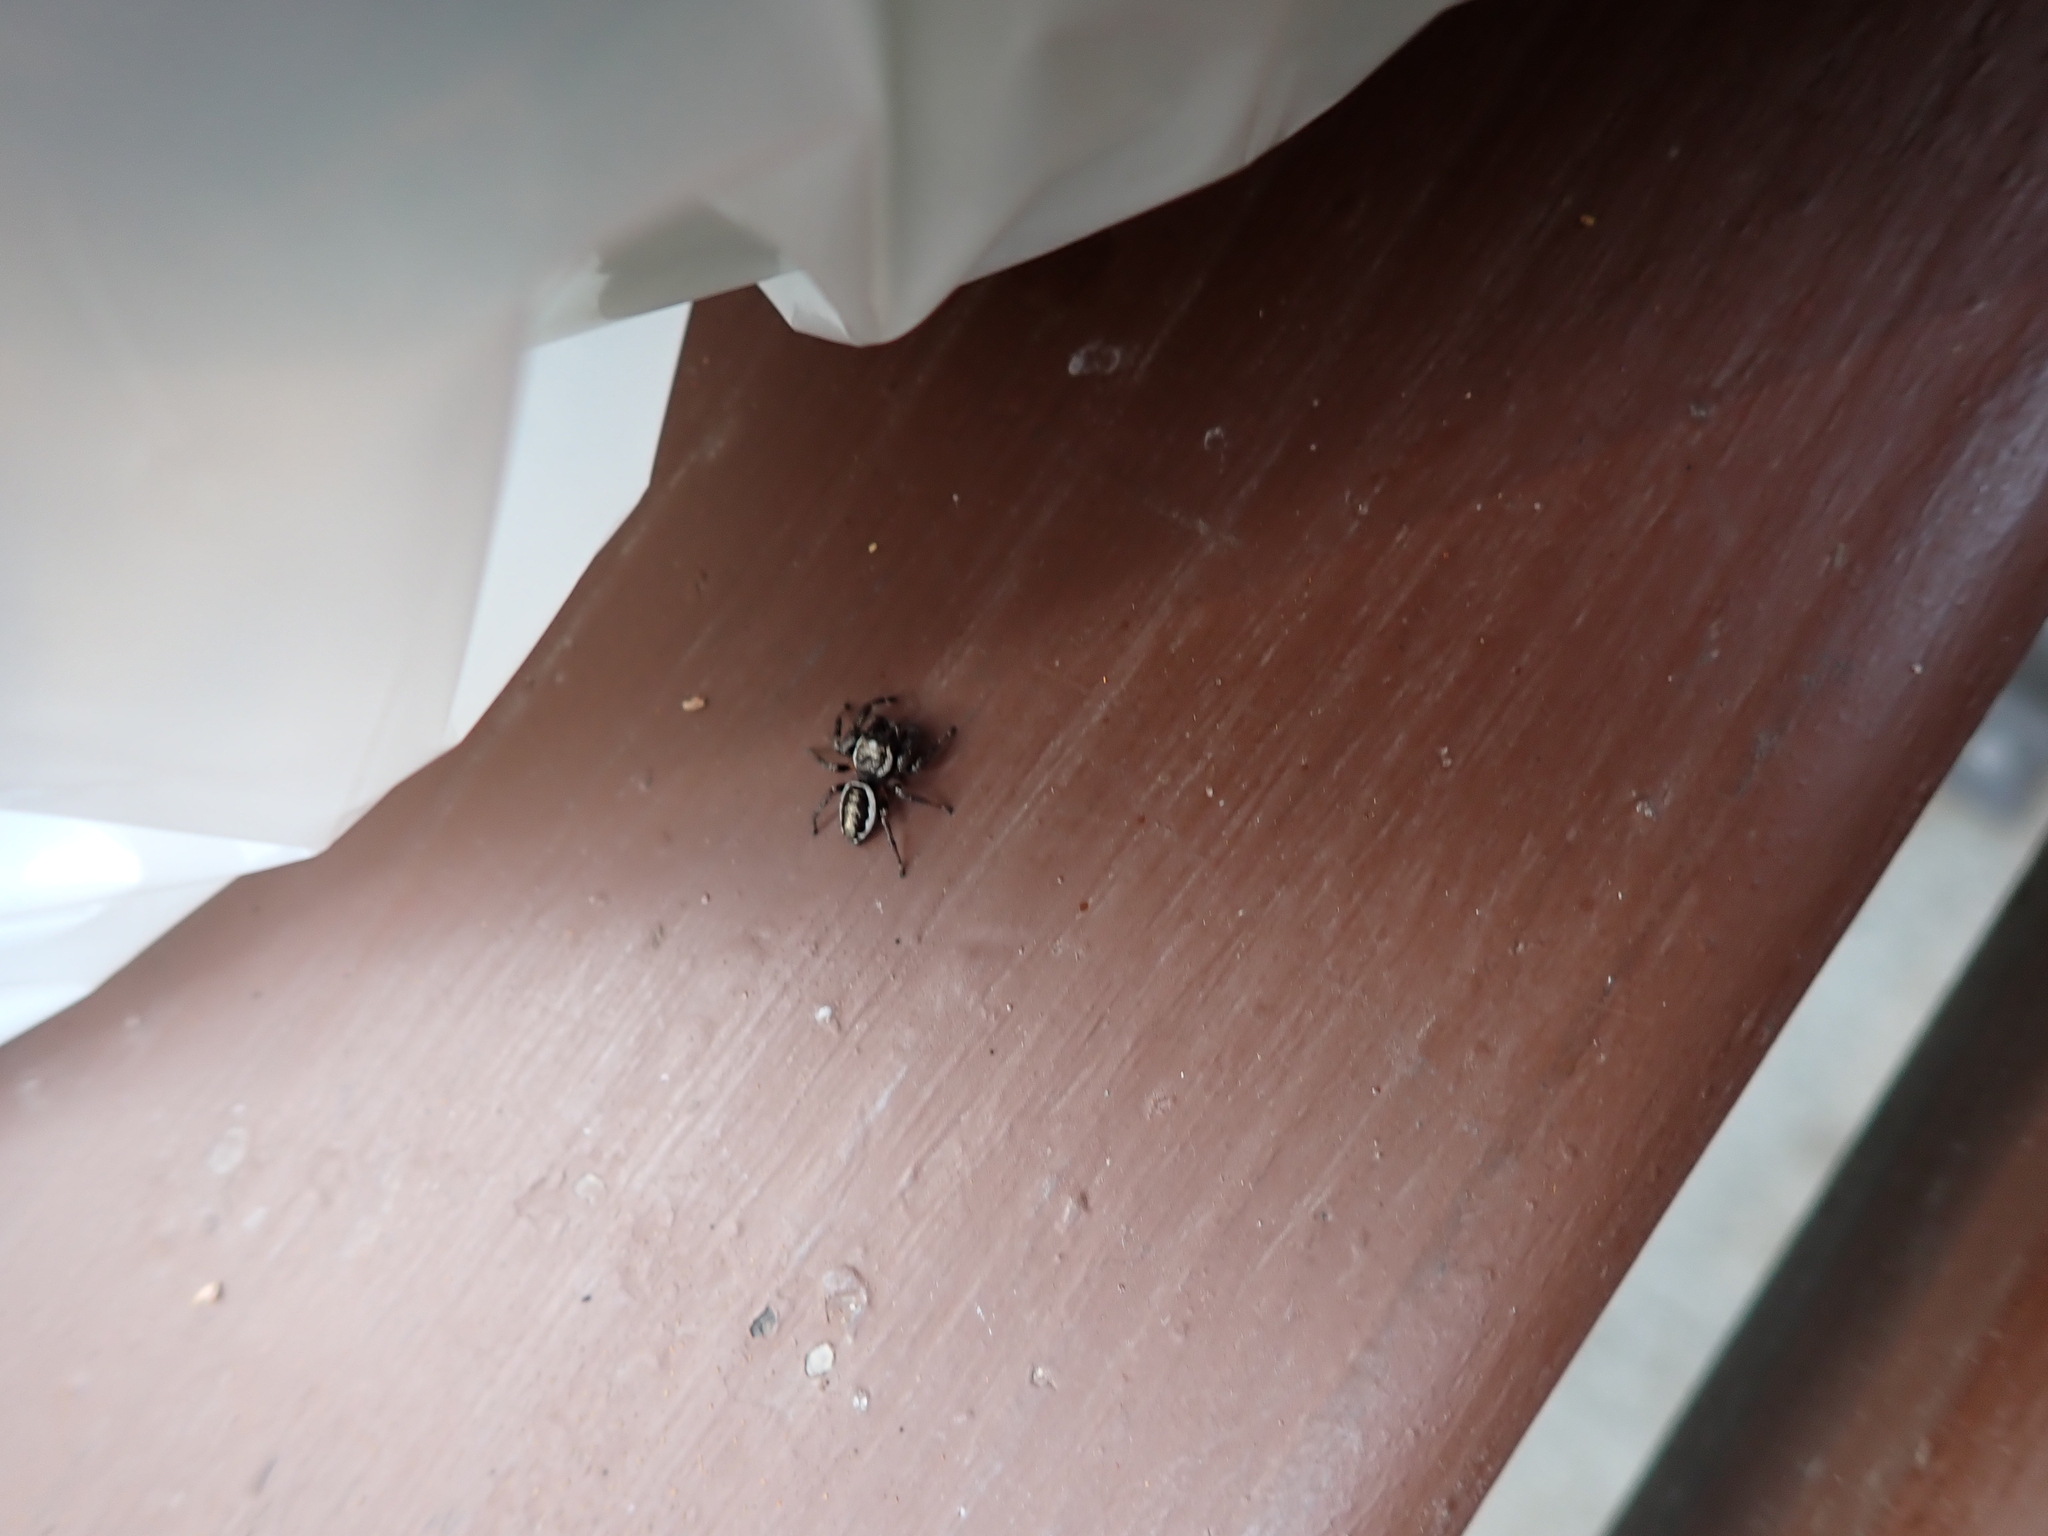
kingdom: Animalia
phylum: Arthropoda
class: Arachnida
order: Araneae
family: Salticidae
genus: Eris
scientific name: Eris militaris
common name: Bronze jumper
